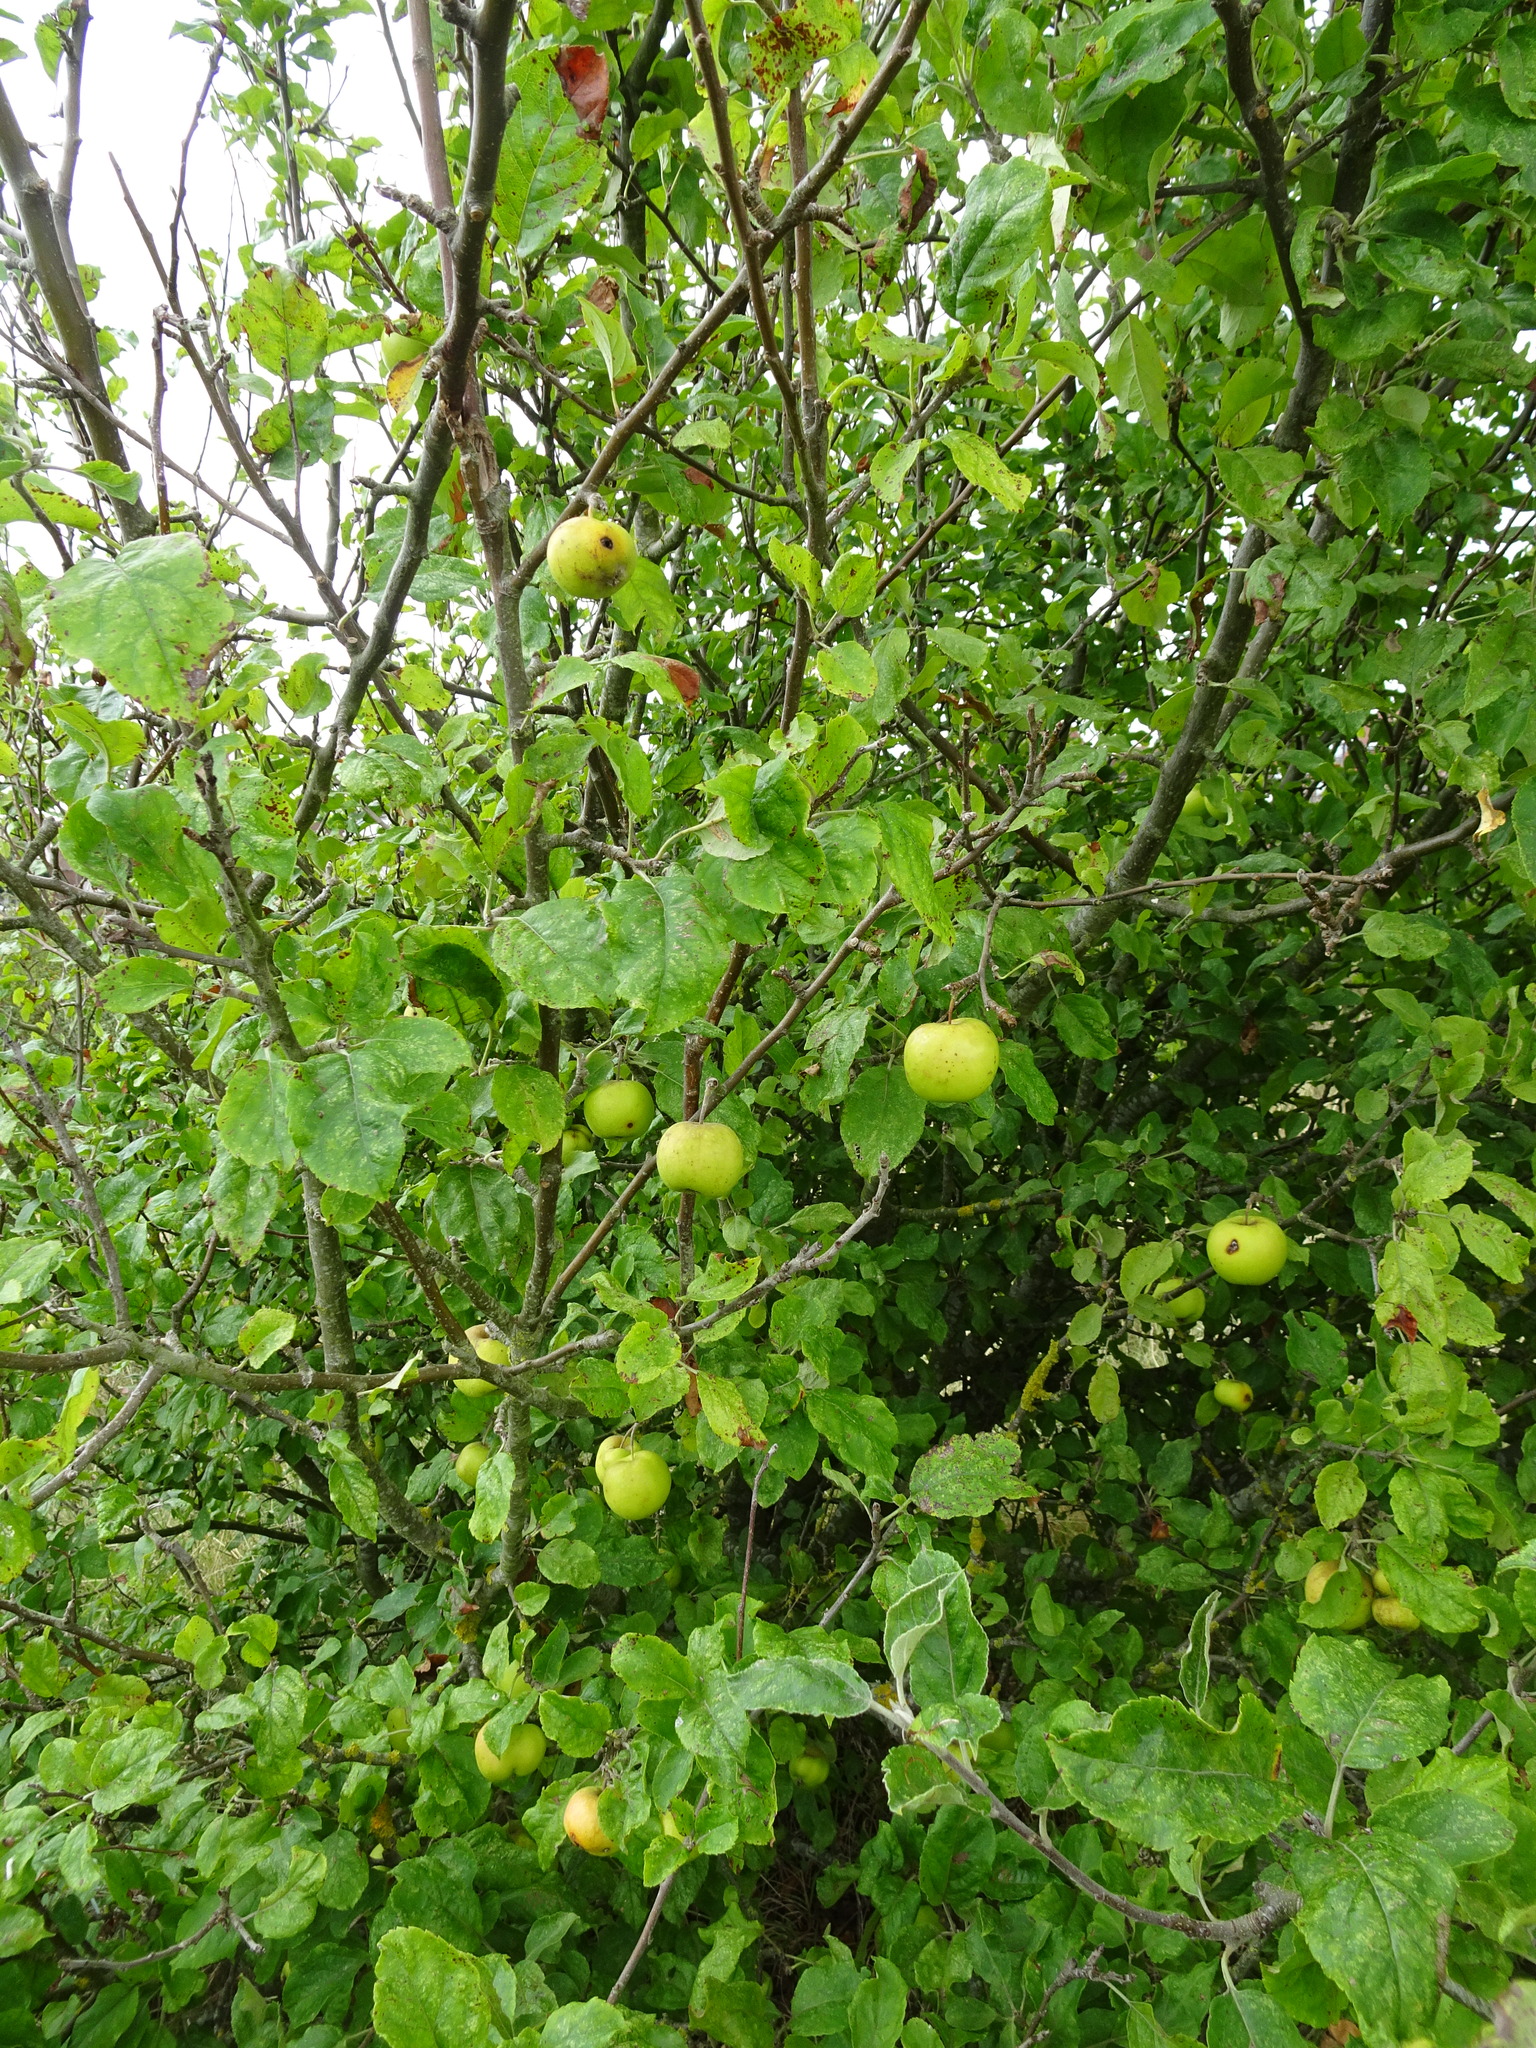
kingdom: Plantae
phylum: Tracheophyta
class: Magnoliopsida
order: Rosales
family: Rosaceae
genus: Malus
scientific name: Malus domestica
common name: Apple
